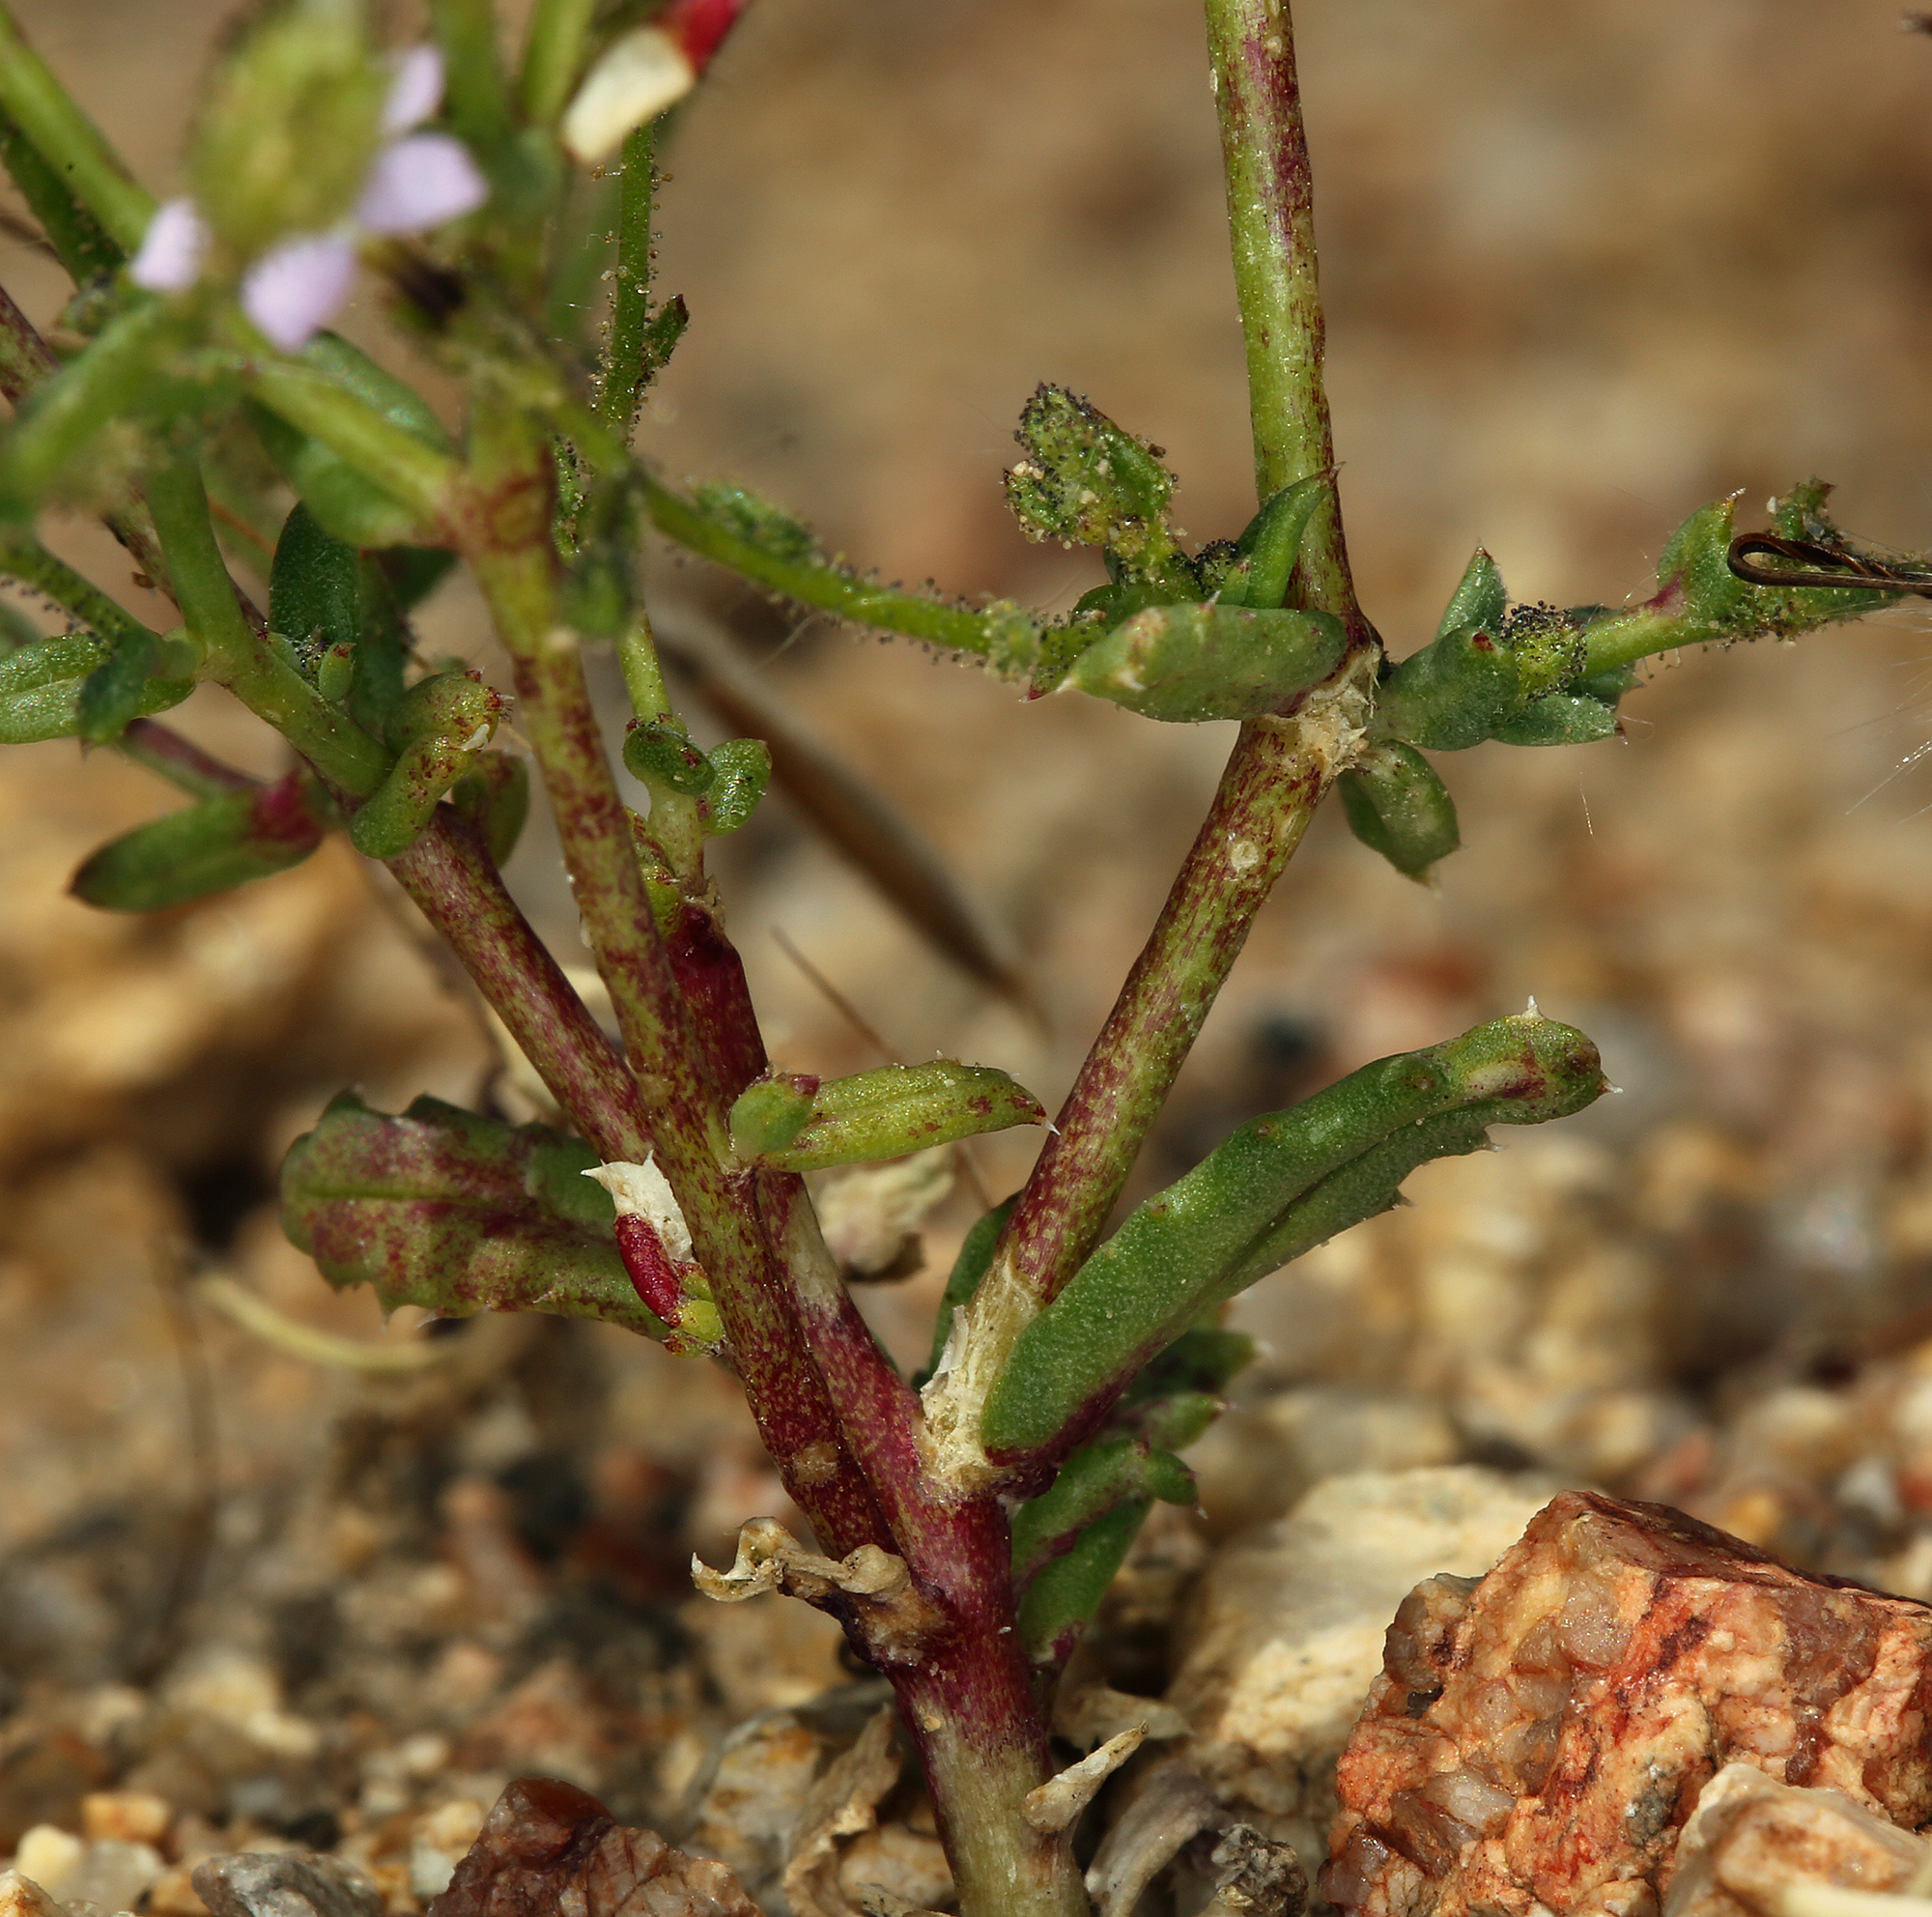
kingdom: Plantae
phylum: Tracheophyta
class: Magnoliopsida
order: Ericales
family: Polemoniaceae
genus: Gilia
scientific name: Gilia sinuata
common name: Rosy gilia
